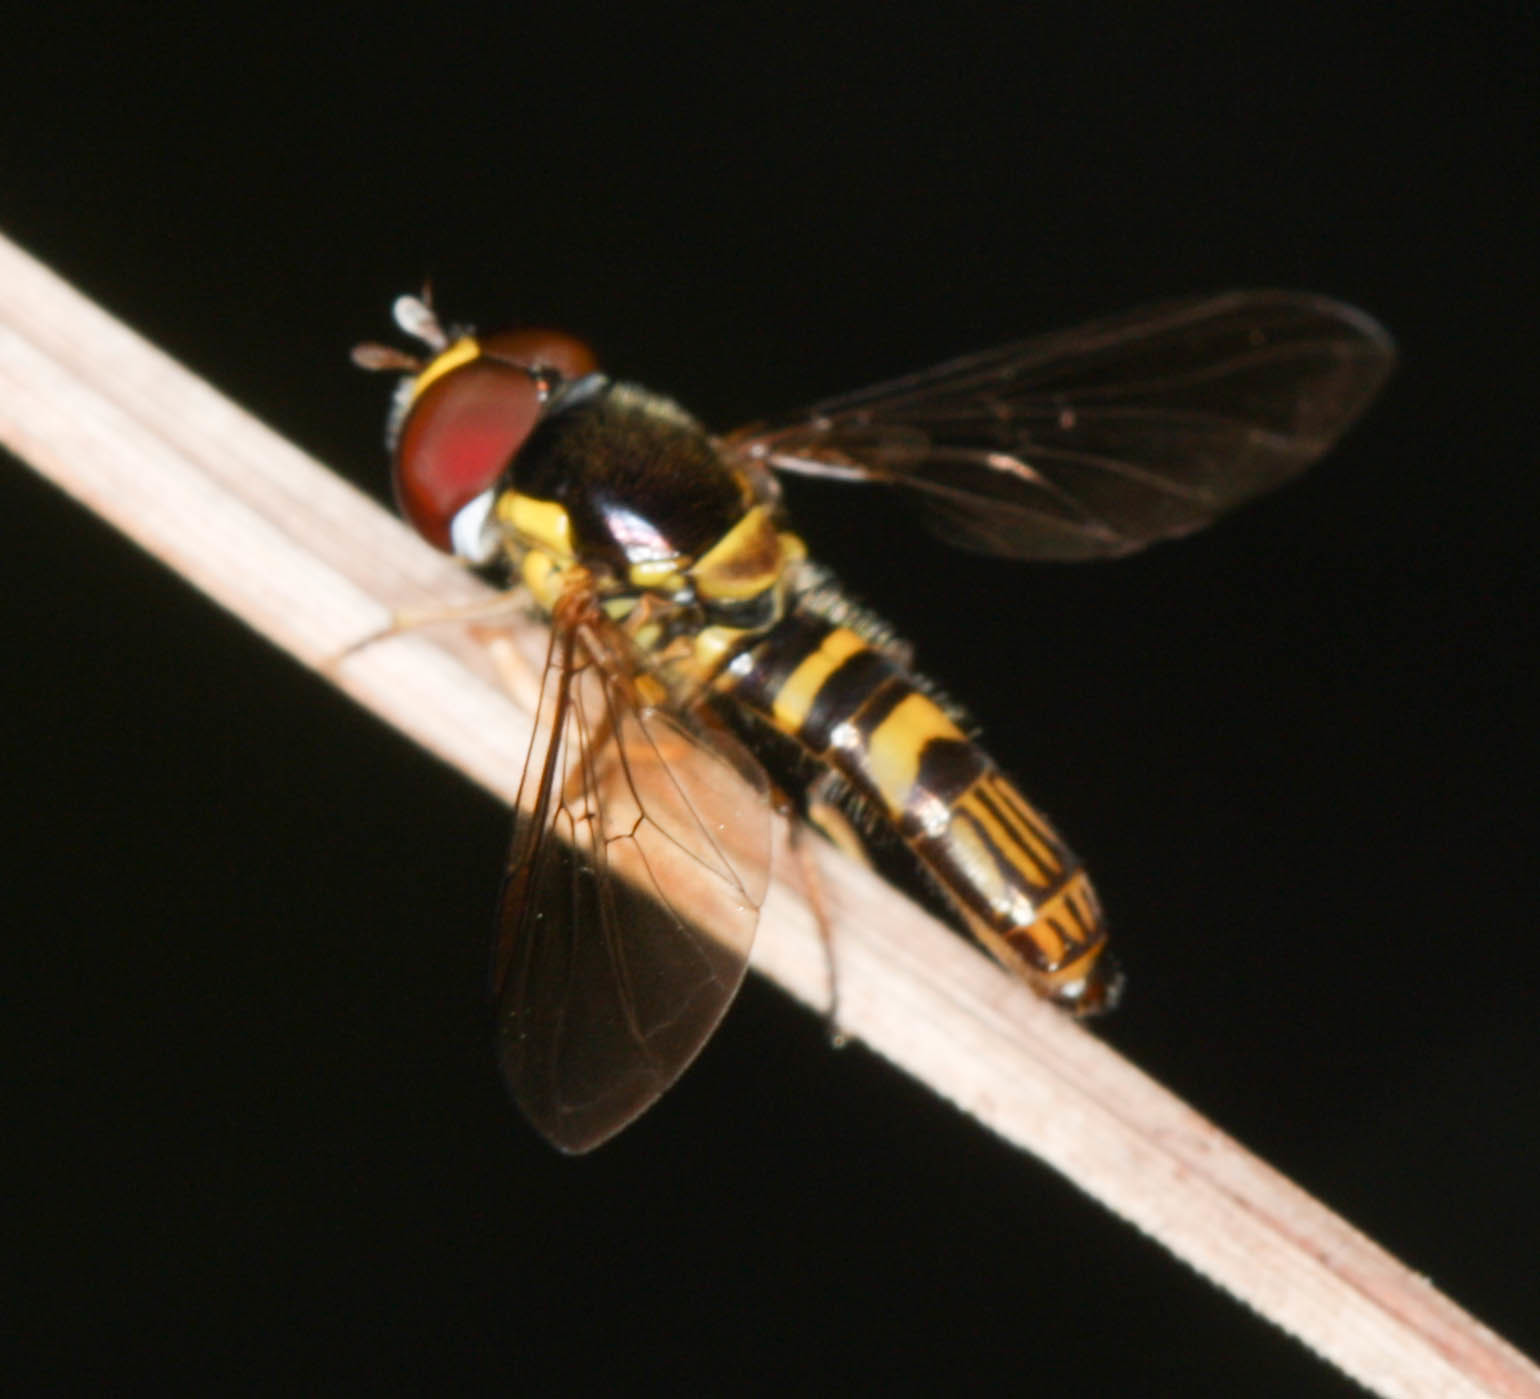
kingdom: Animalia
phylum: Arthropoda
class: Insecta
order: Diptera
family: Syrphidae
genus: Allograpta
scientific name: Allograpta obliqua
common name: Common oblique syrphid
